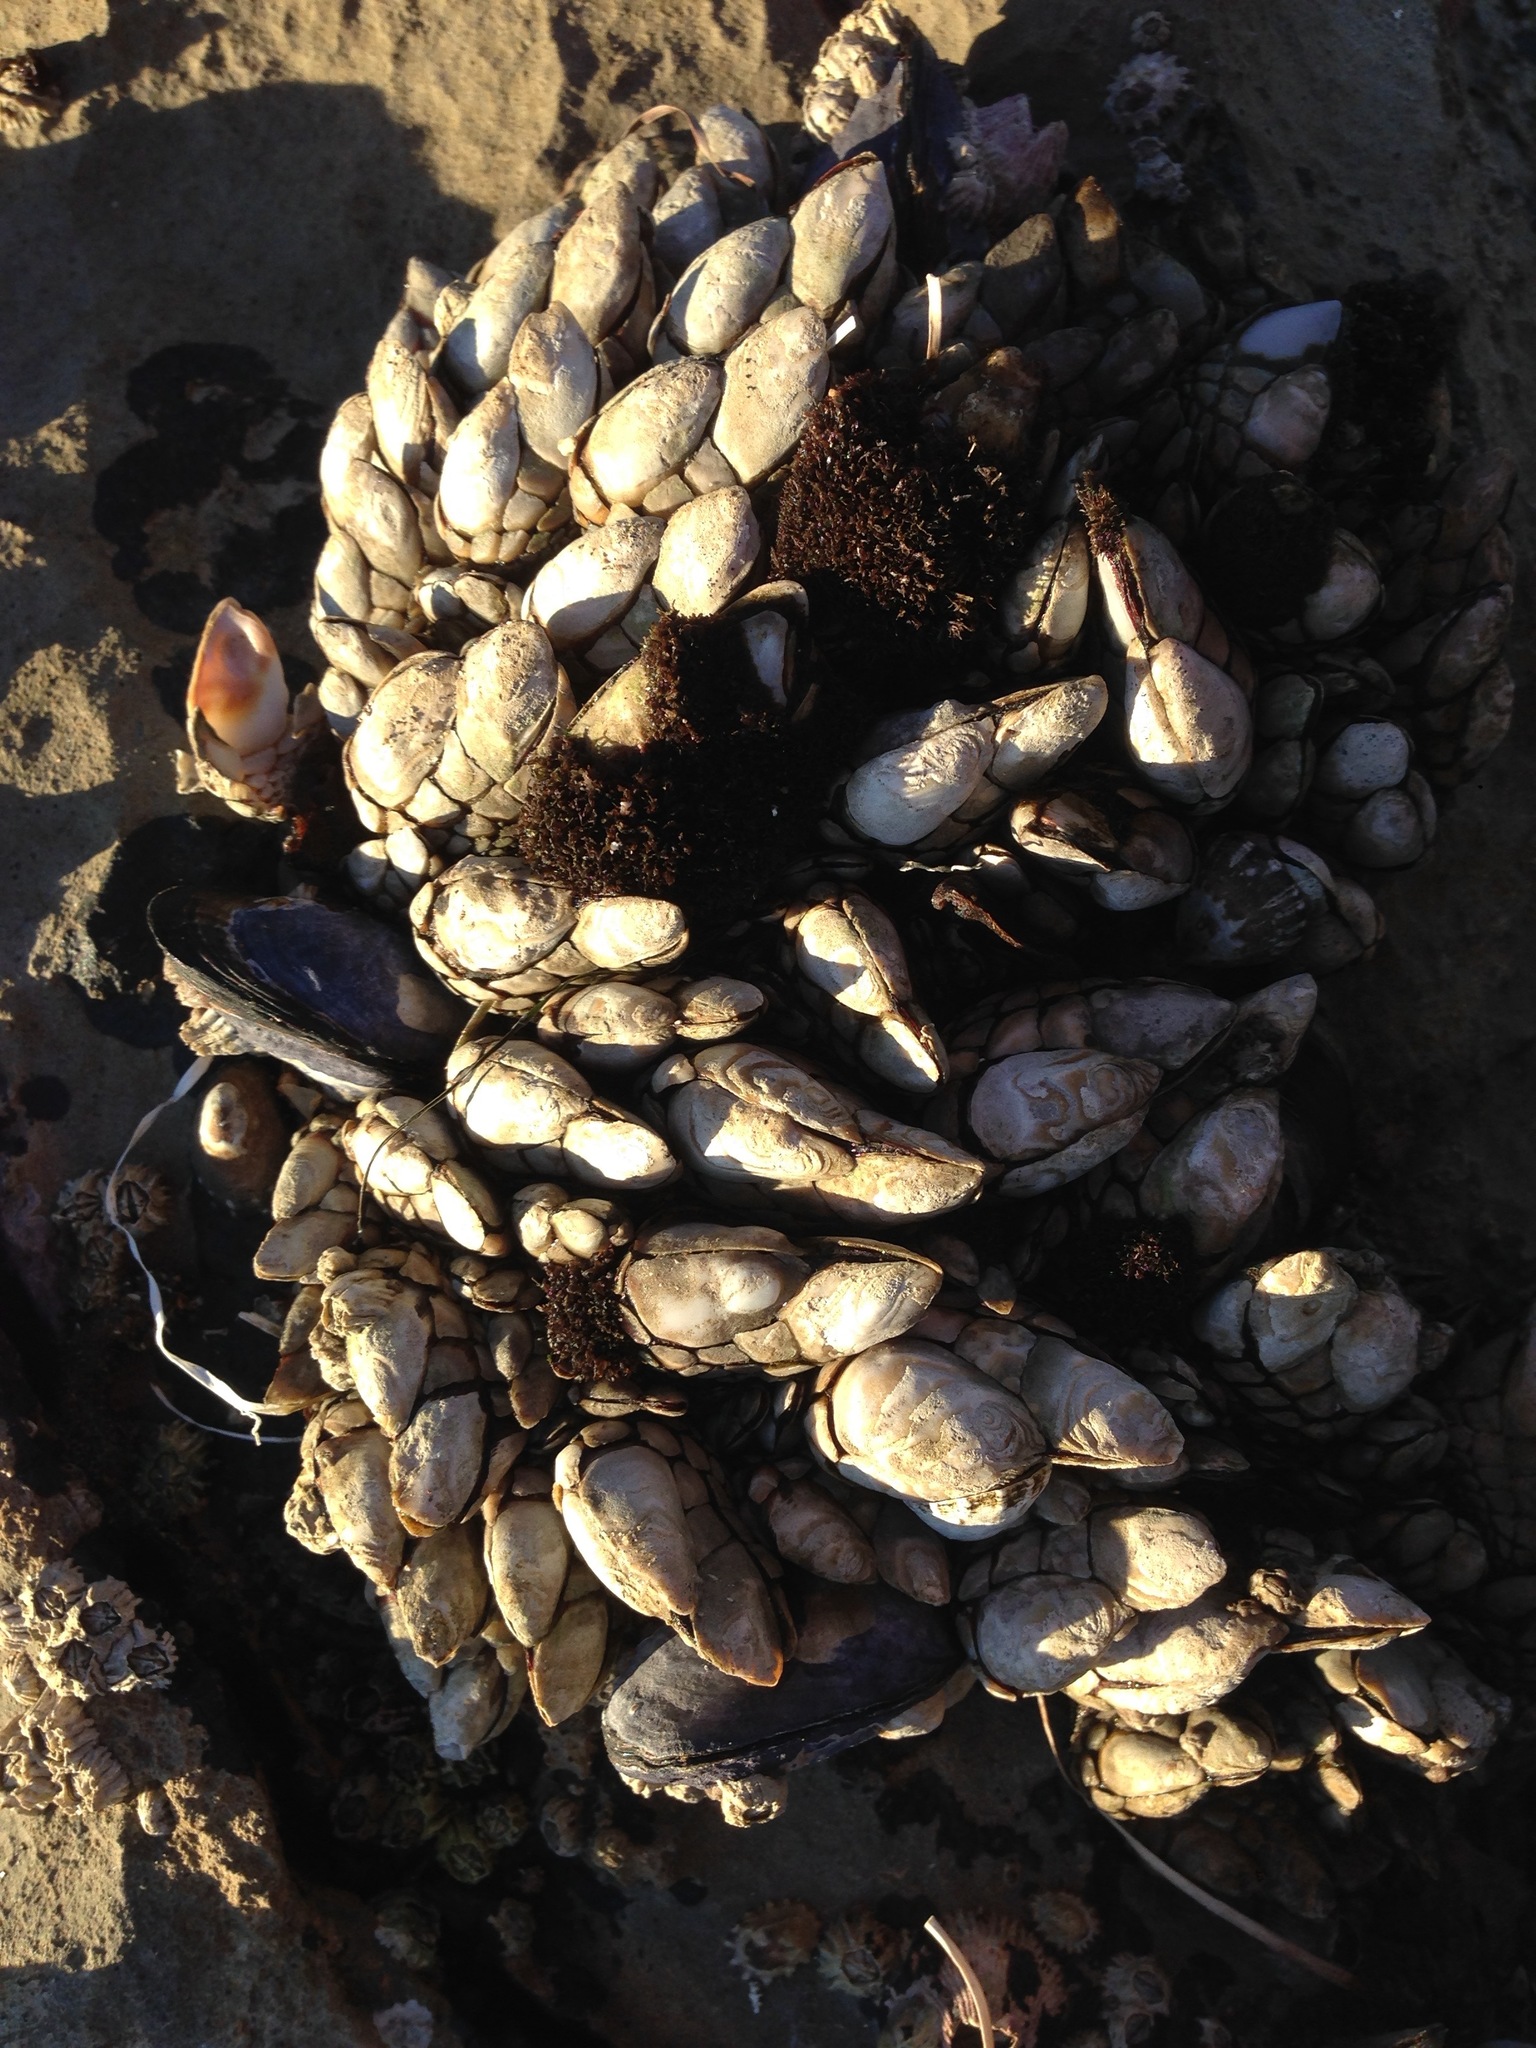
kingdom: Animalia
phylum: Arthropoda
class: Maxillopoda
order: Pedunculata
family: Pollicipedidae
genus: Pollicipes
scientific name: Pollicipes polymerus
